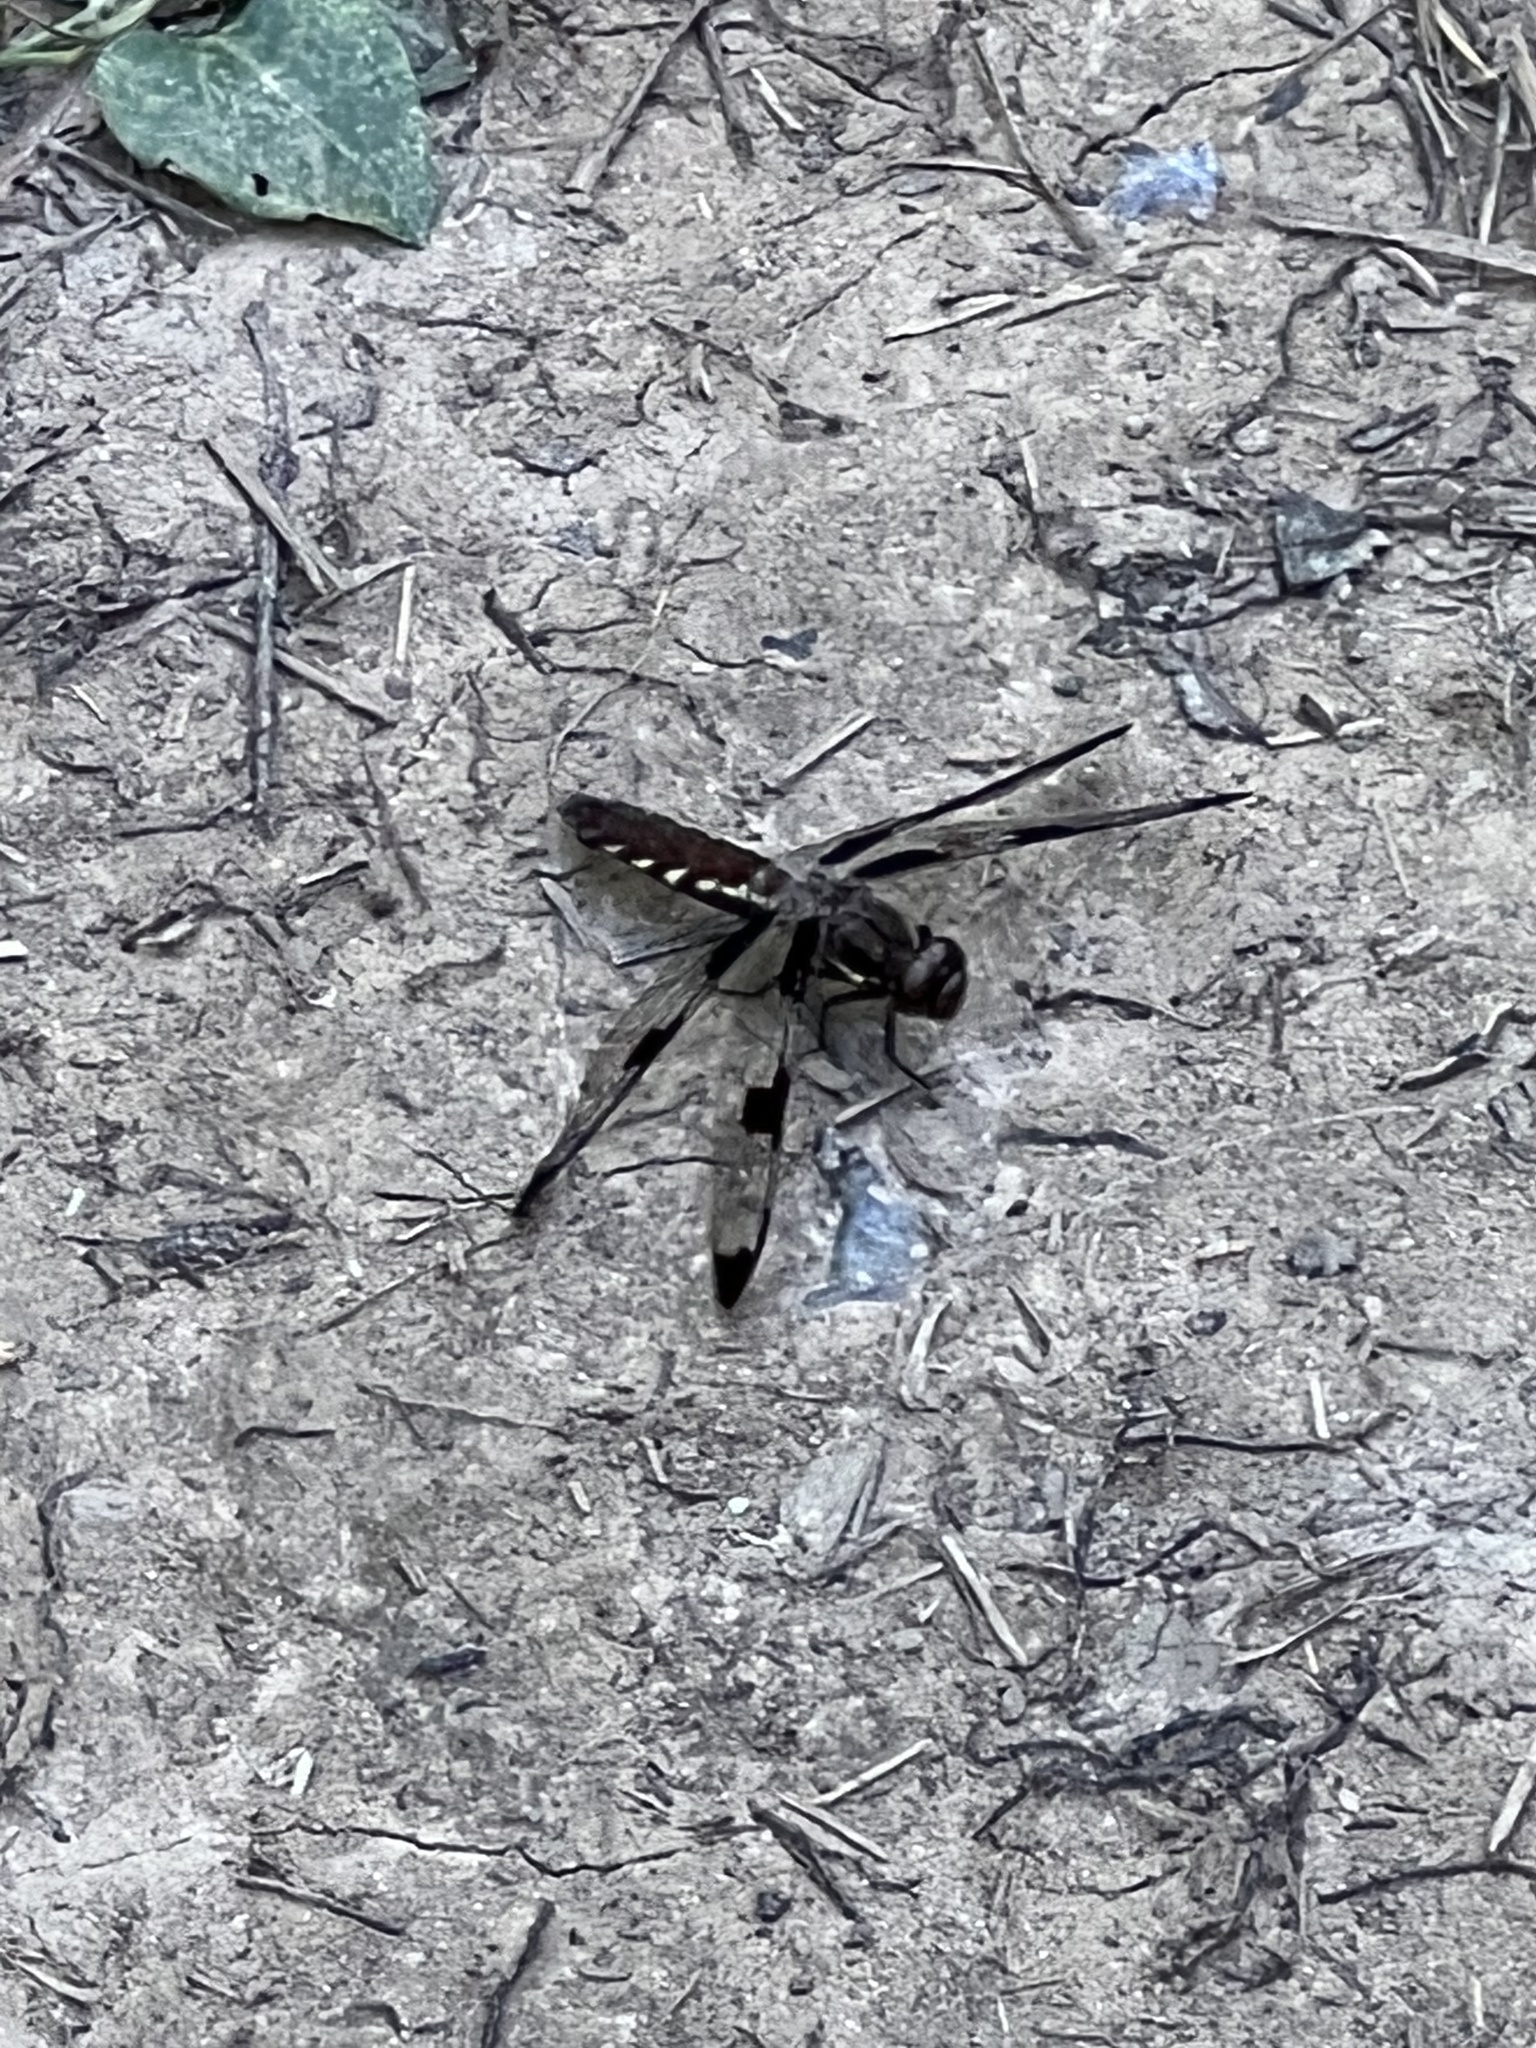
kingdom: Animalia
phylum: Arthropoda
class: Insecta
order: Odonata
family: Libellulidae
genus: Plathemis
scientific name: Plathemis lydia
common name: Common whitetail
